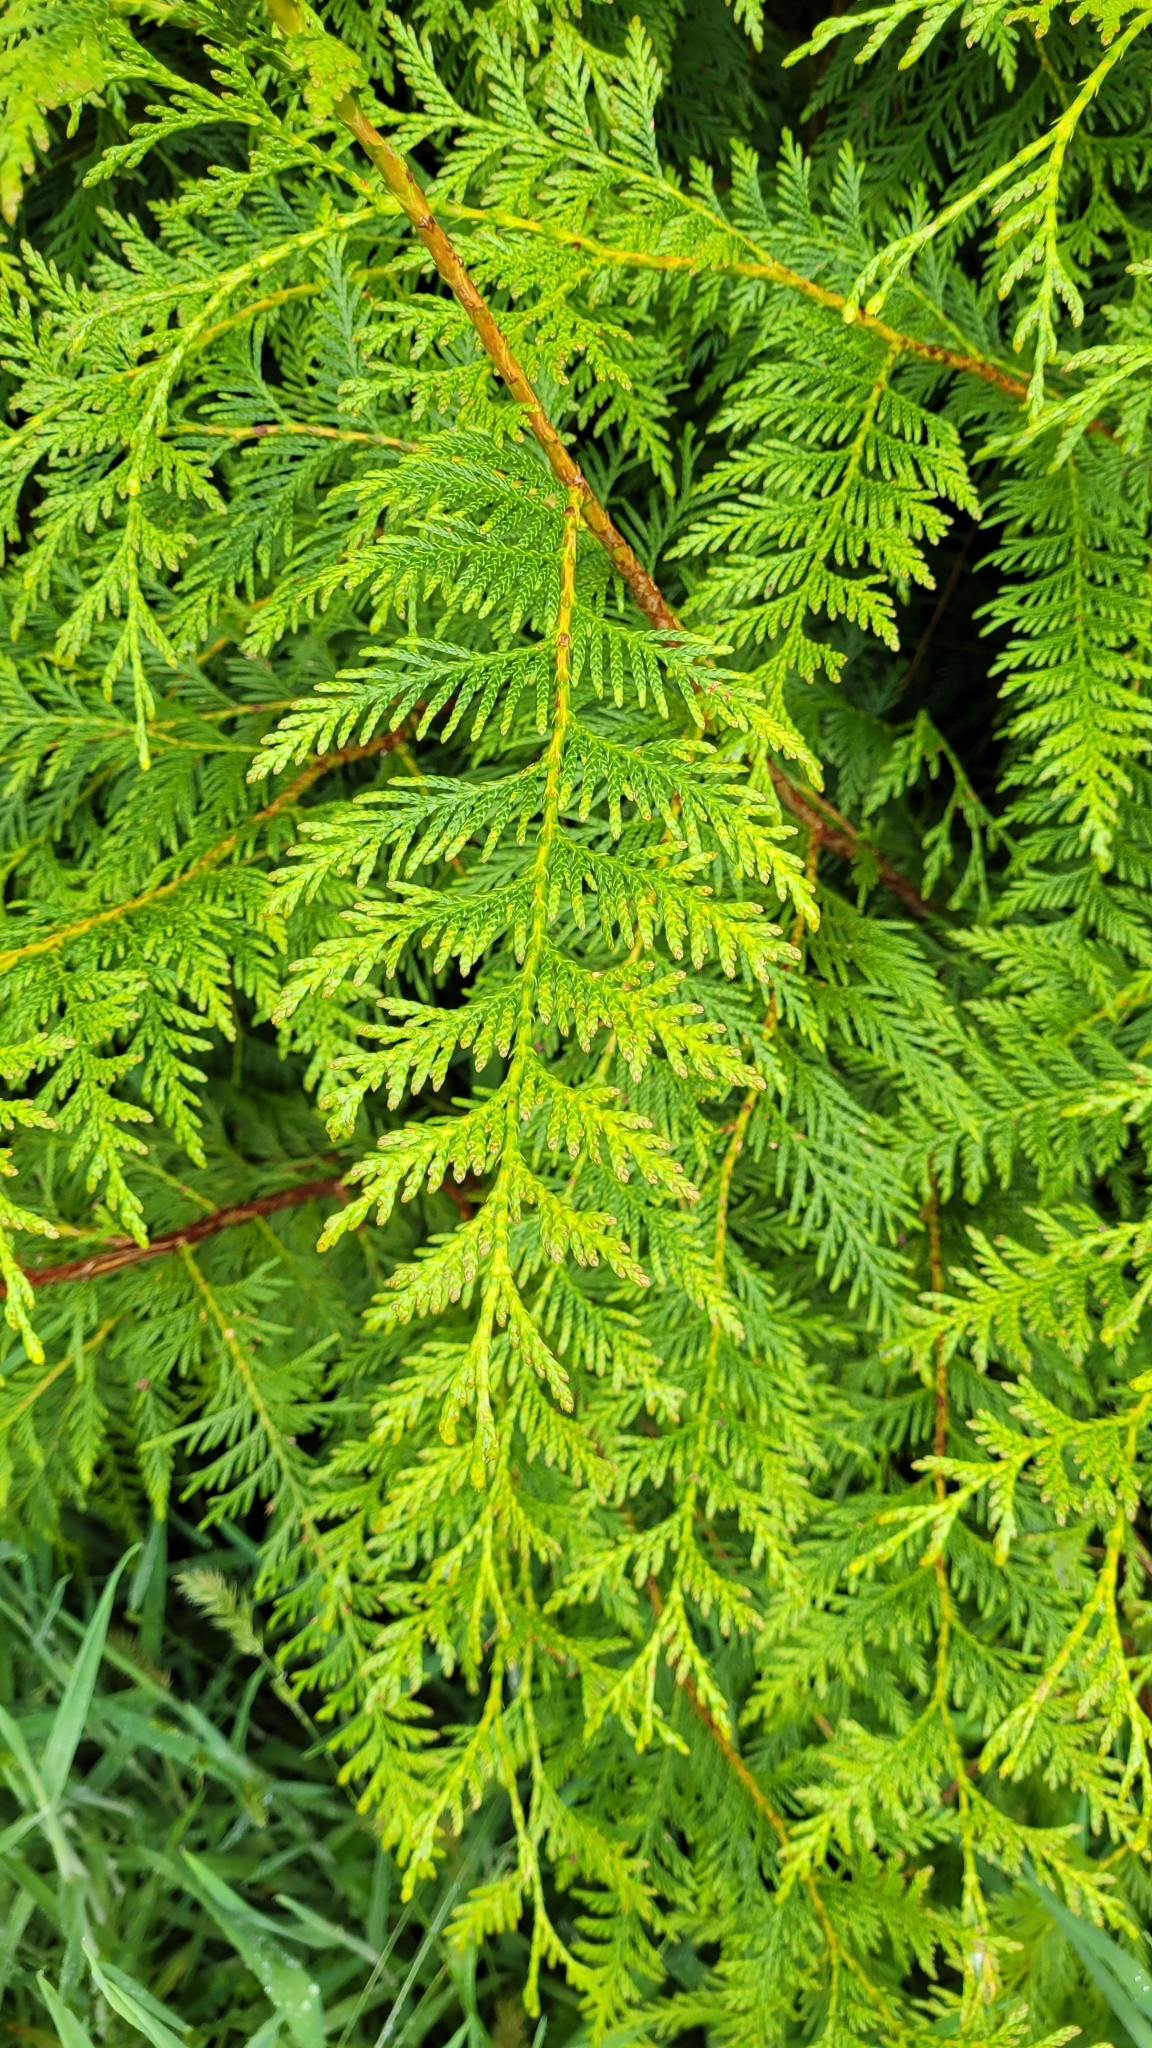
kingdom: Plantae
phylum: Tracheophyta
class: Pinopsida
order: Pinales
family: Cupressaceae
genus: Chamaecyparis
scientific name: Chamaecyparis lawsoniana
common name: Lawson's cypress
